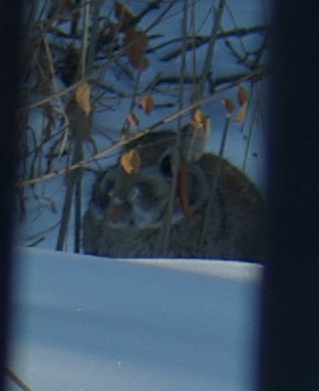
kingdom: Animalia
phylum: Chordata
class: Mammalia
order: Lagomorpha
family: Leporidae
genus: Sylvilagus
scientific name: Sylvilagus floridanus
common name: Eastern cottontail
